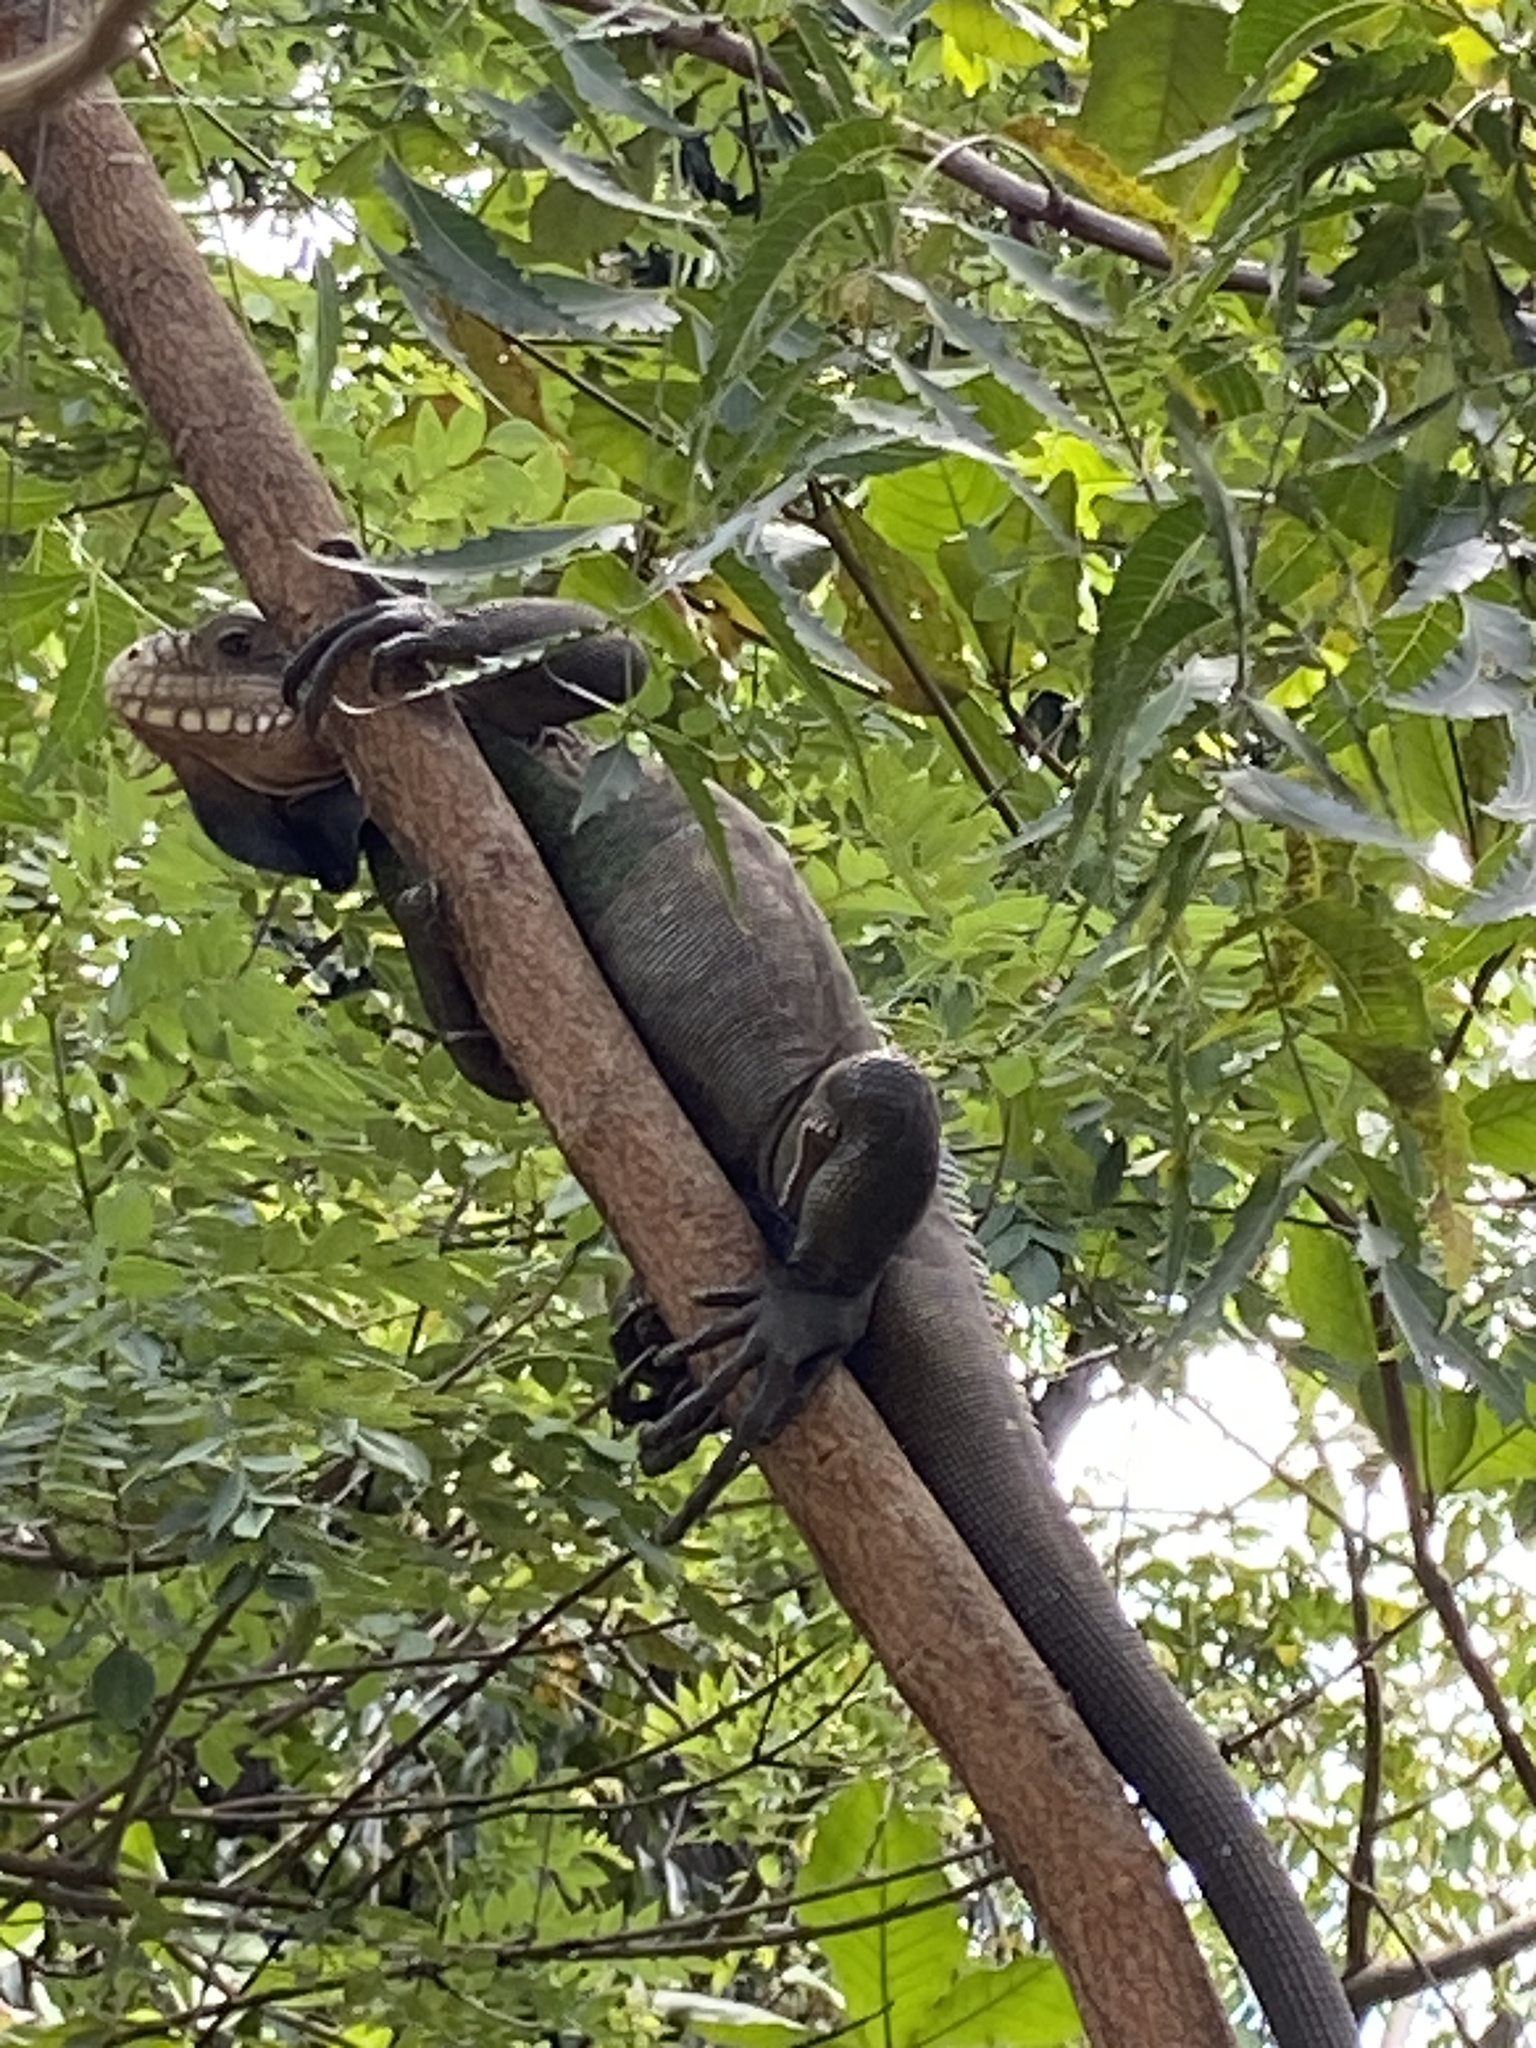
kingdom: Animalia
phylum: Chordata
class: Squamata
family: Iguanidae
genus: Iguana
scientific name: Iguana delicatissima
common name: West indian iguana
